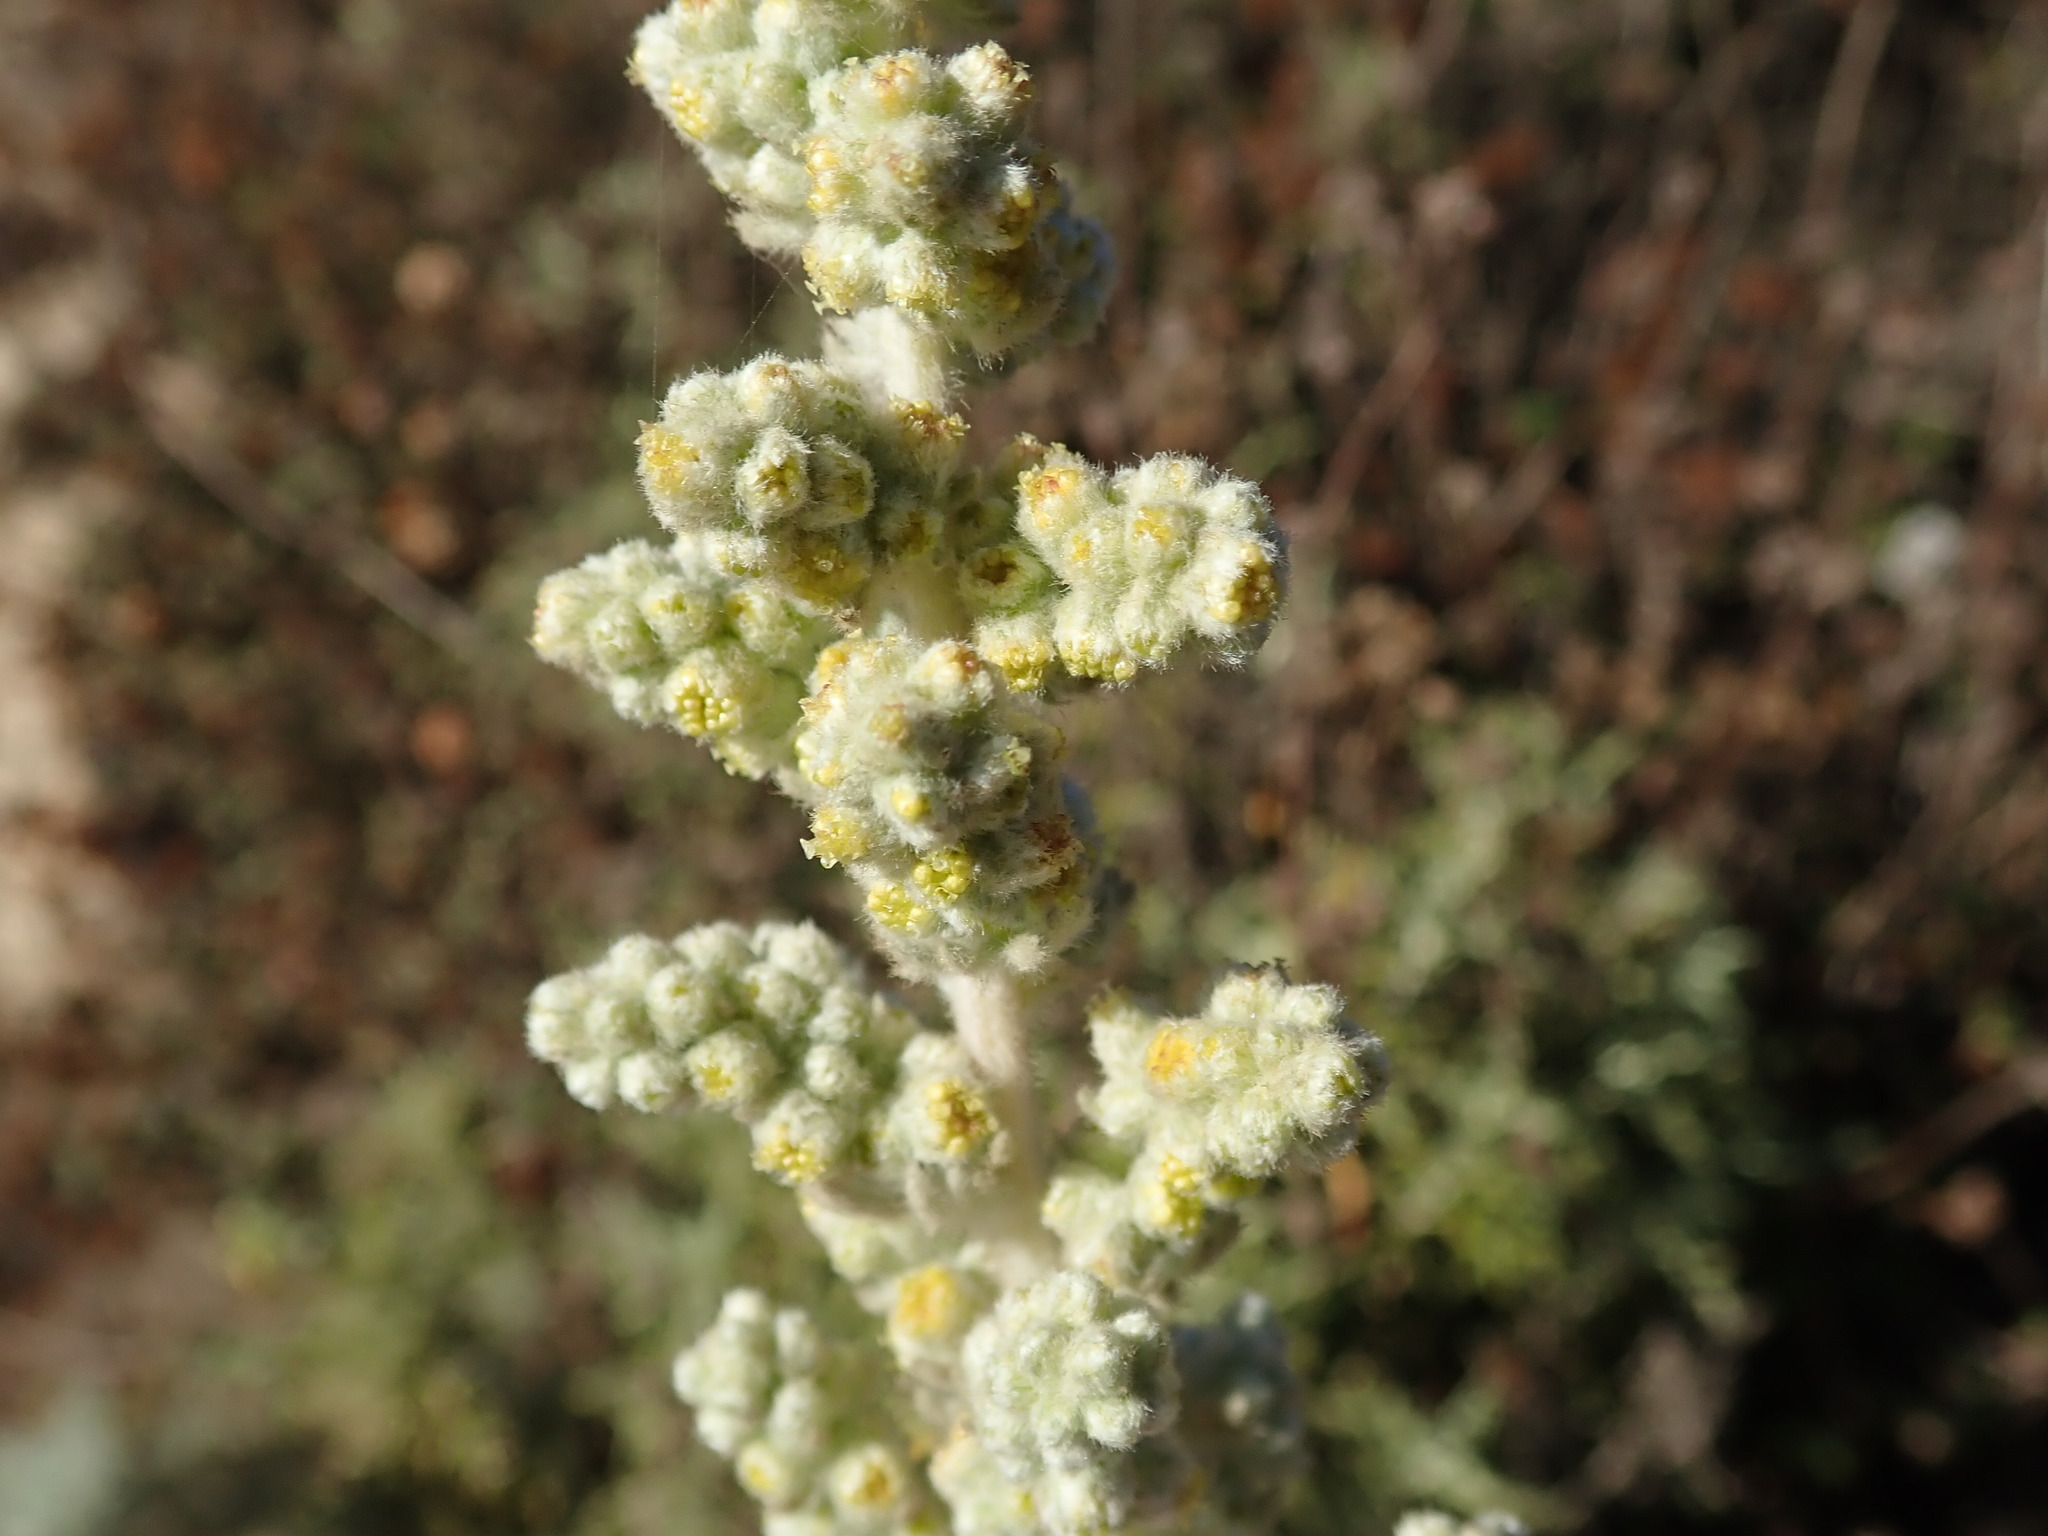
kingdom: Plantae
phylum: Tracheophyta
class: Magnoliopsida
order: Asterales
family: Asteraceae
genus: Artemisia
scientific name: Artemisia pycnocephala
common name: Coastal sagewort
